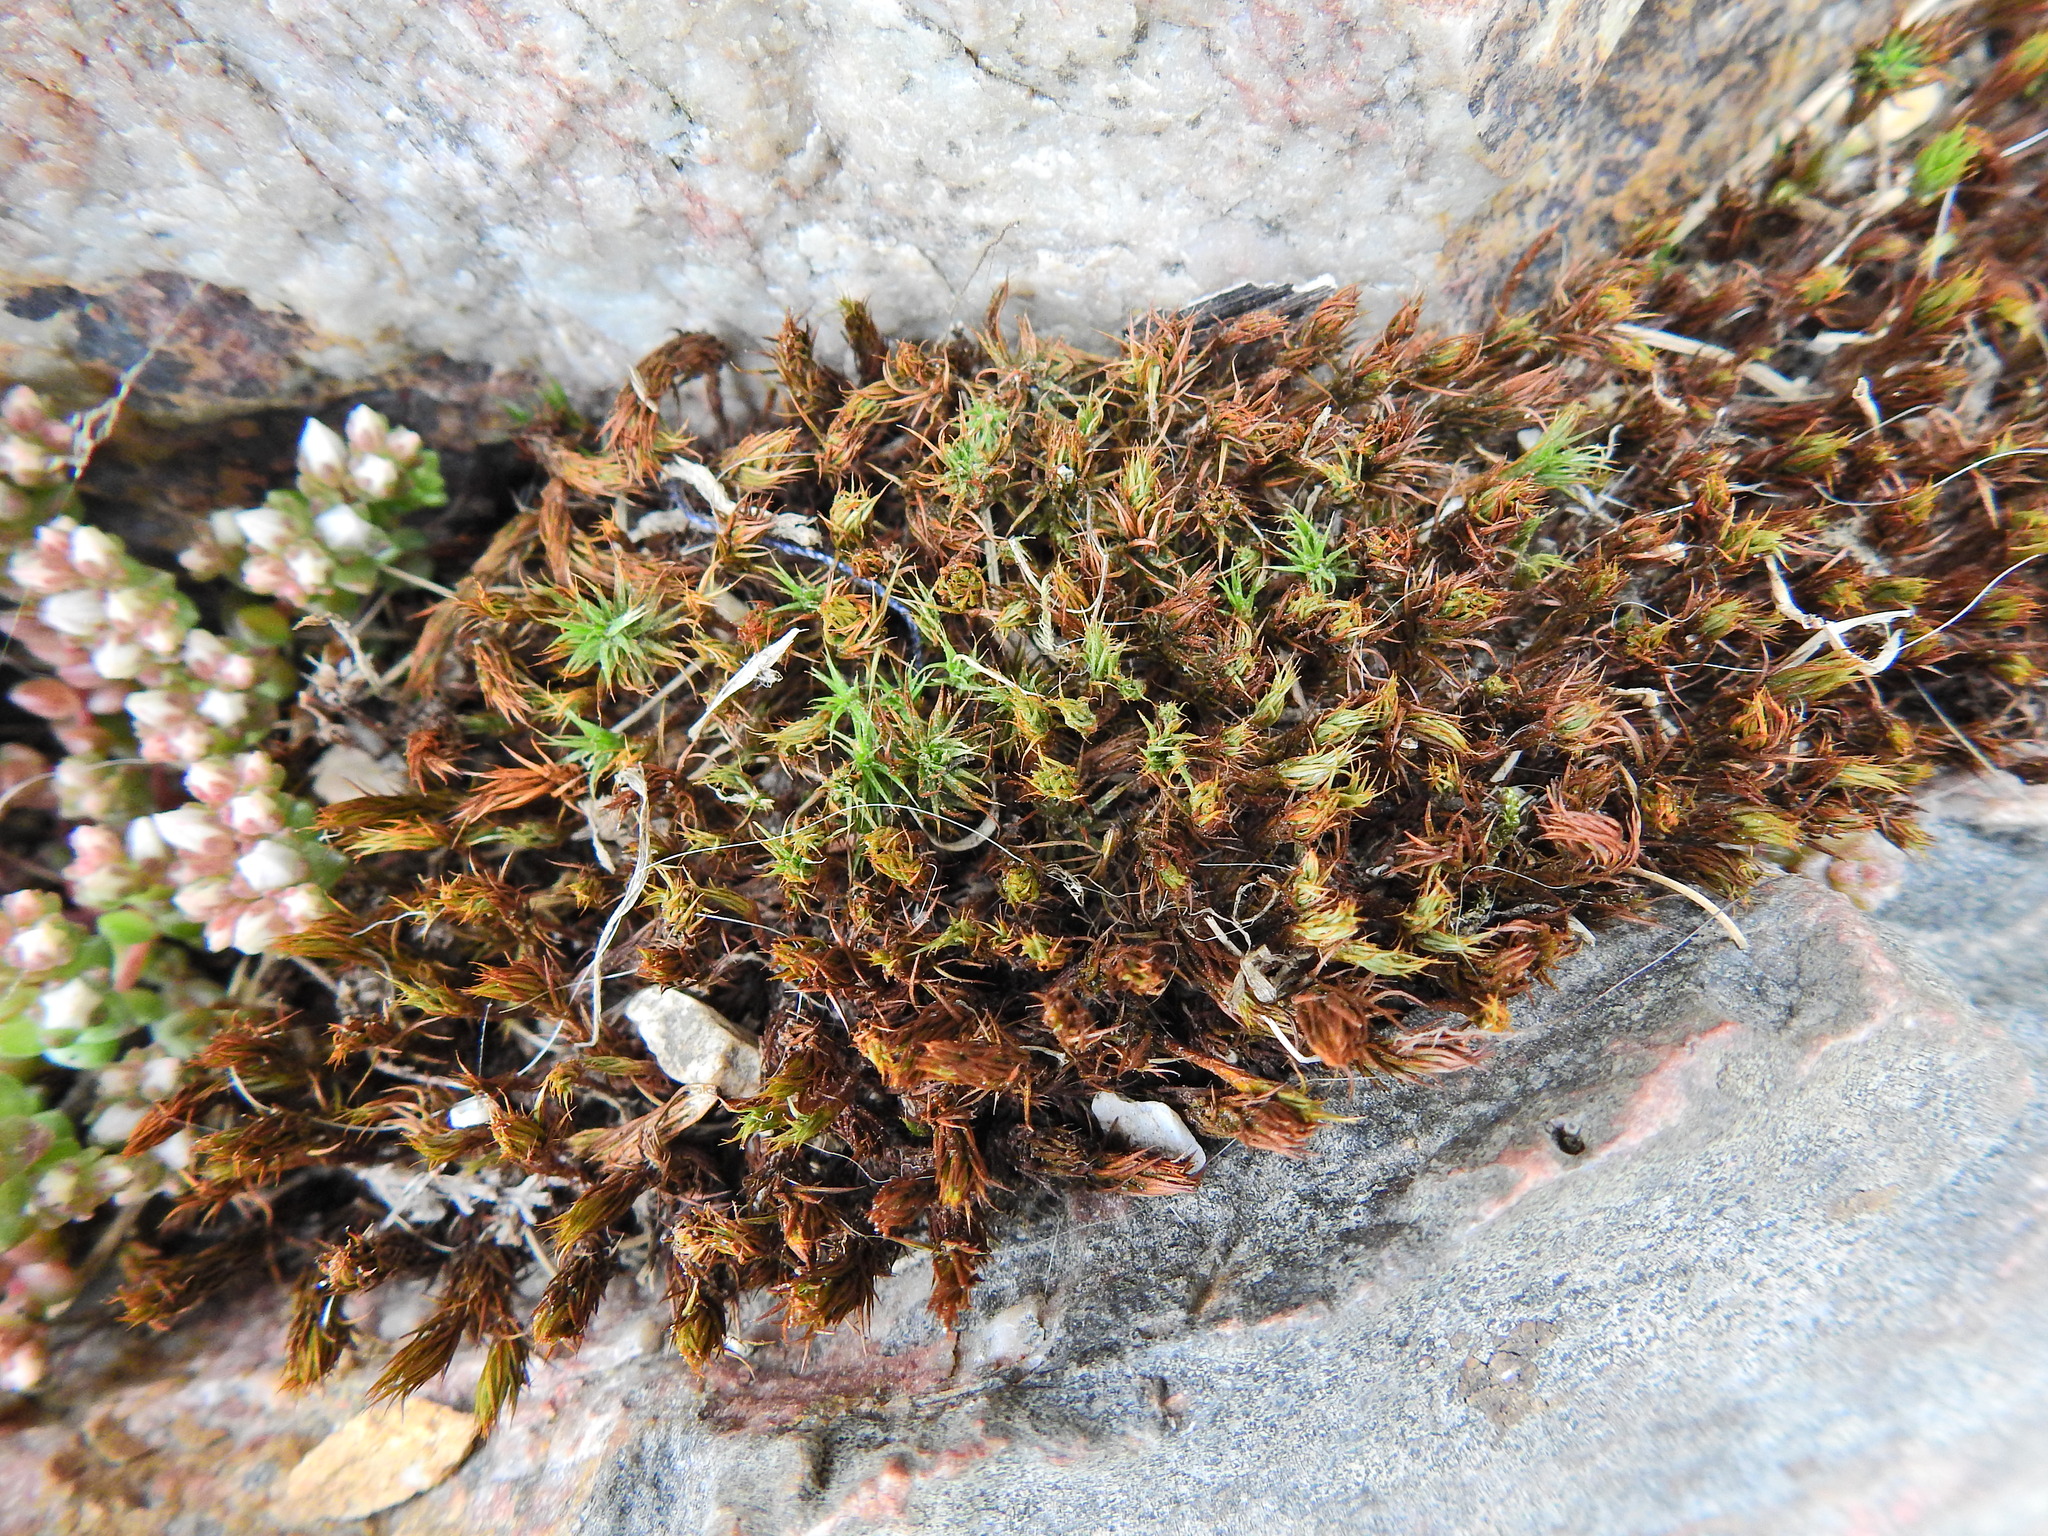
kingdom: Plantae
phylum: Bryophyta
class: Polytrichopsida
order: Polytrichales
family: Polytrichaceae
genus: Polytrichum
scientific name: Polytrichum piliferum
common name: Bristly haircap
